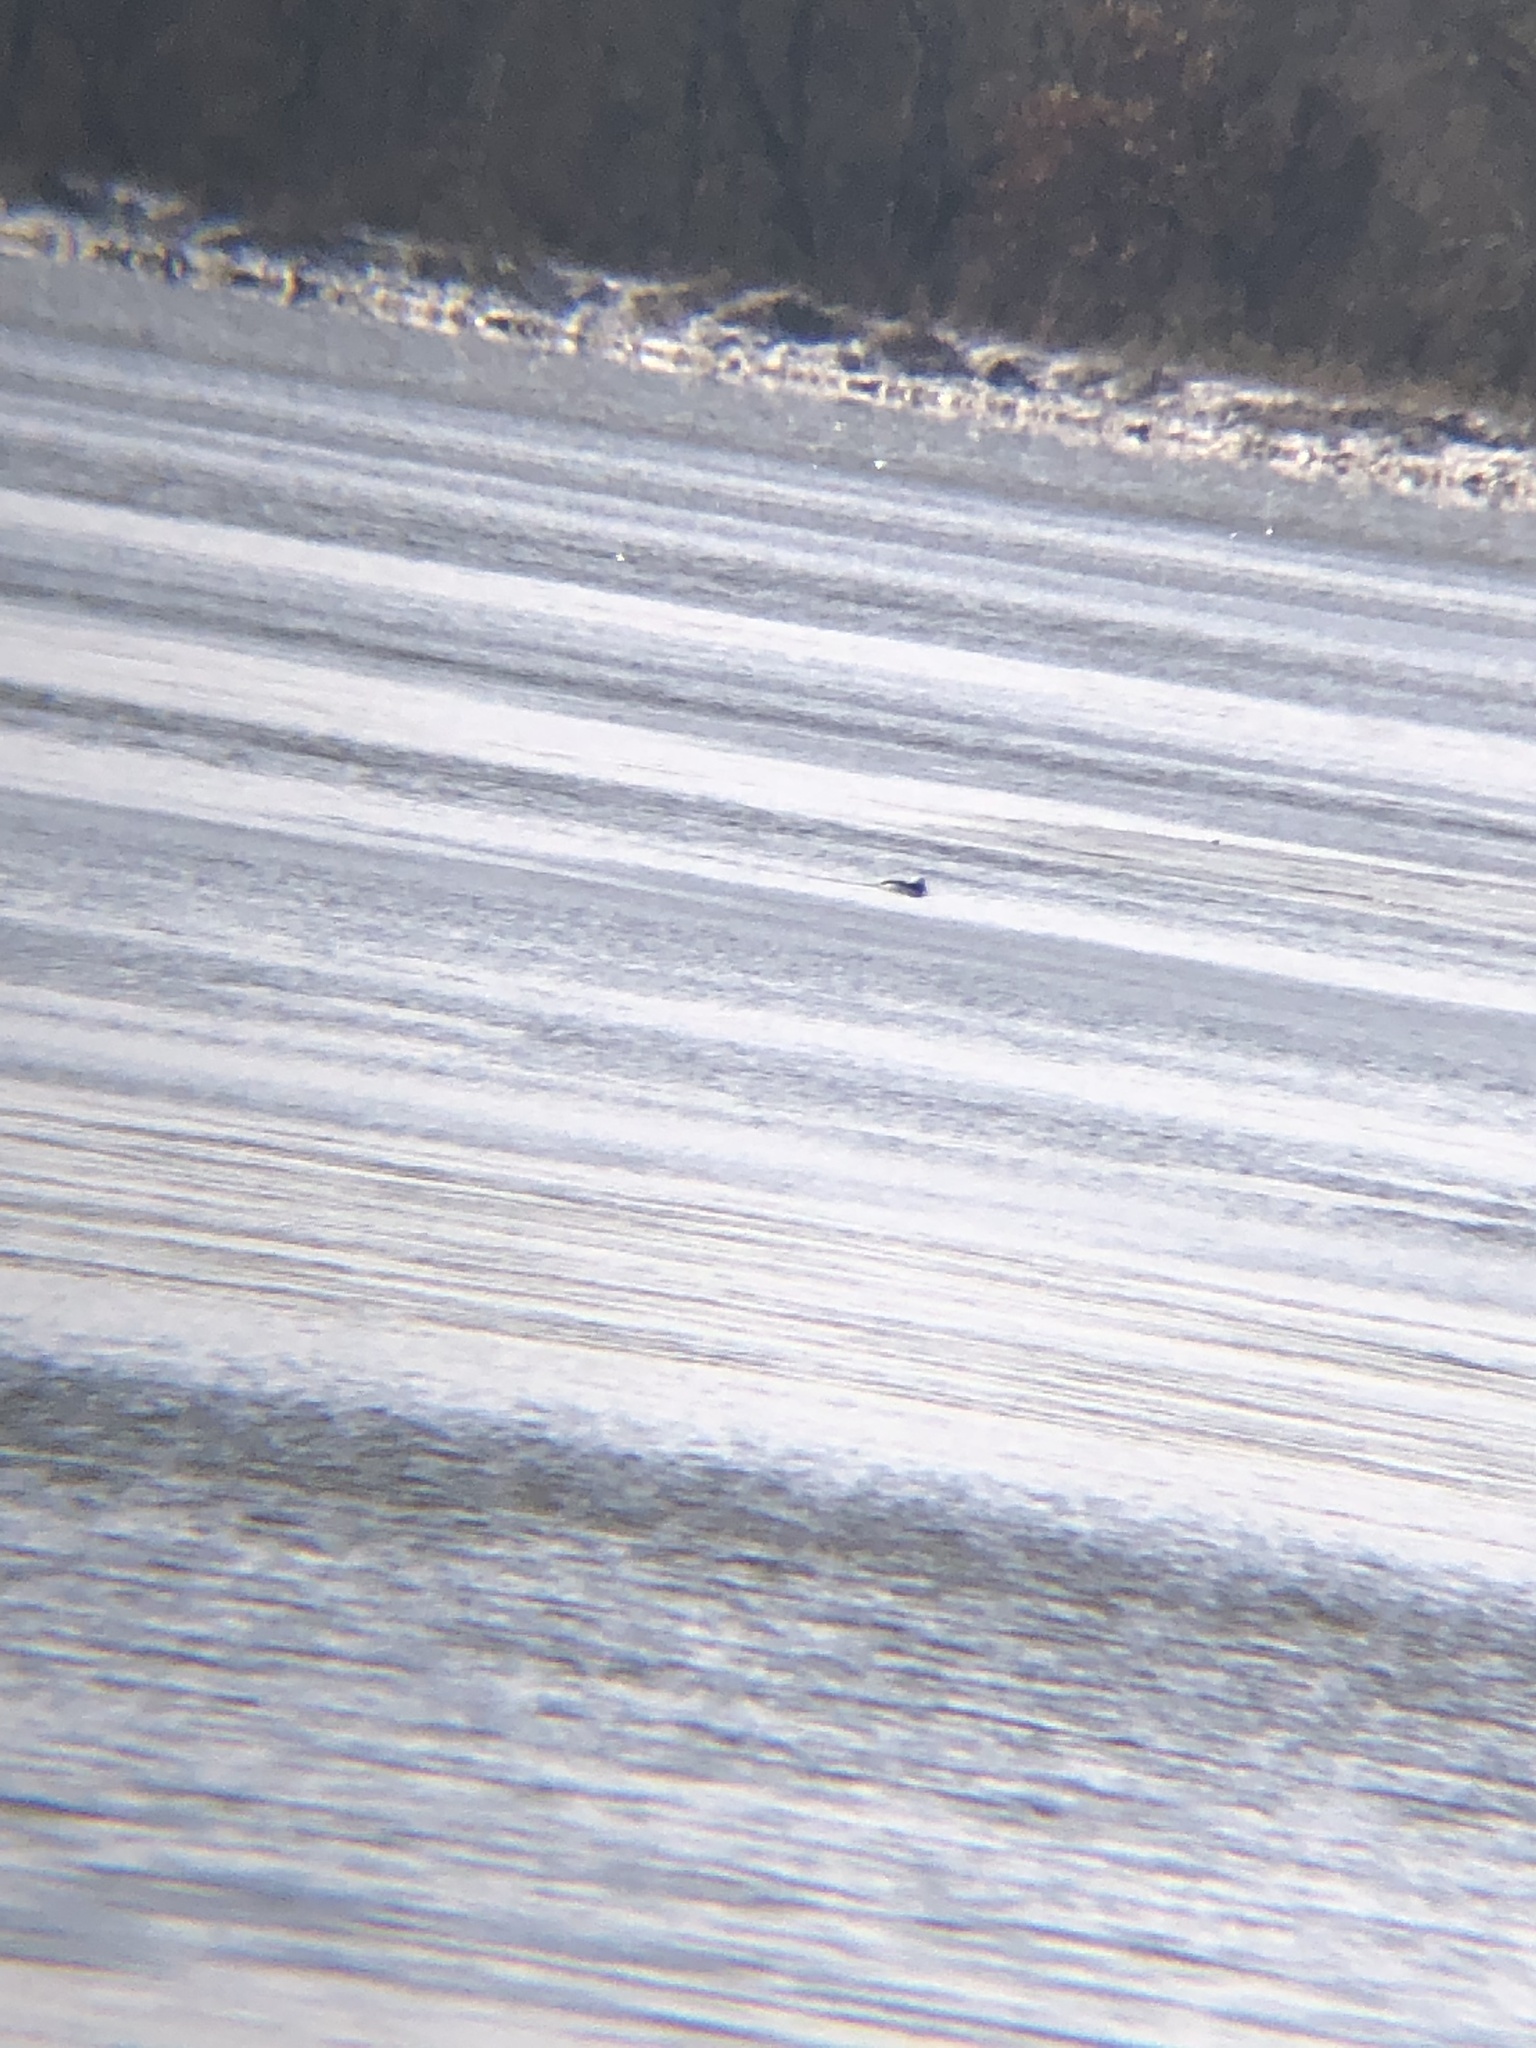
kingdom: Animalia
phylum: Chordata
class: Aves
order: Anseriformes
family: Anatidae
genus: Bucephala
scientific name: Bucephala albeola
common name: Bufflehead
